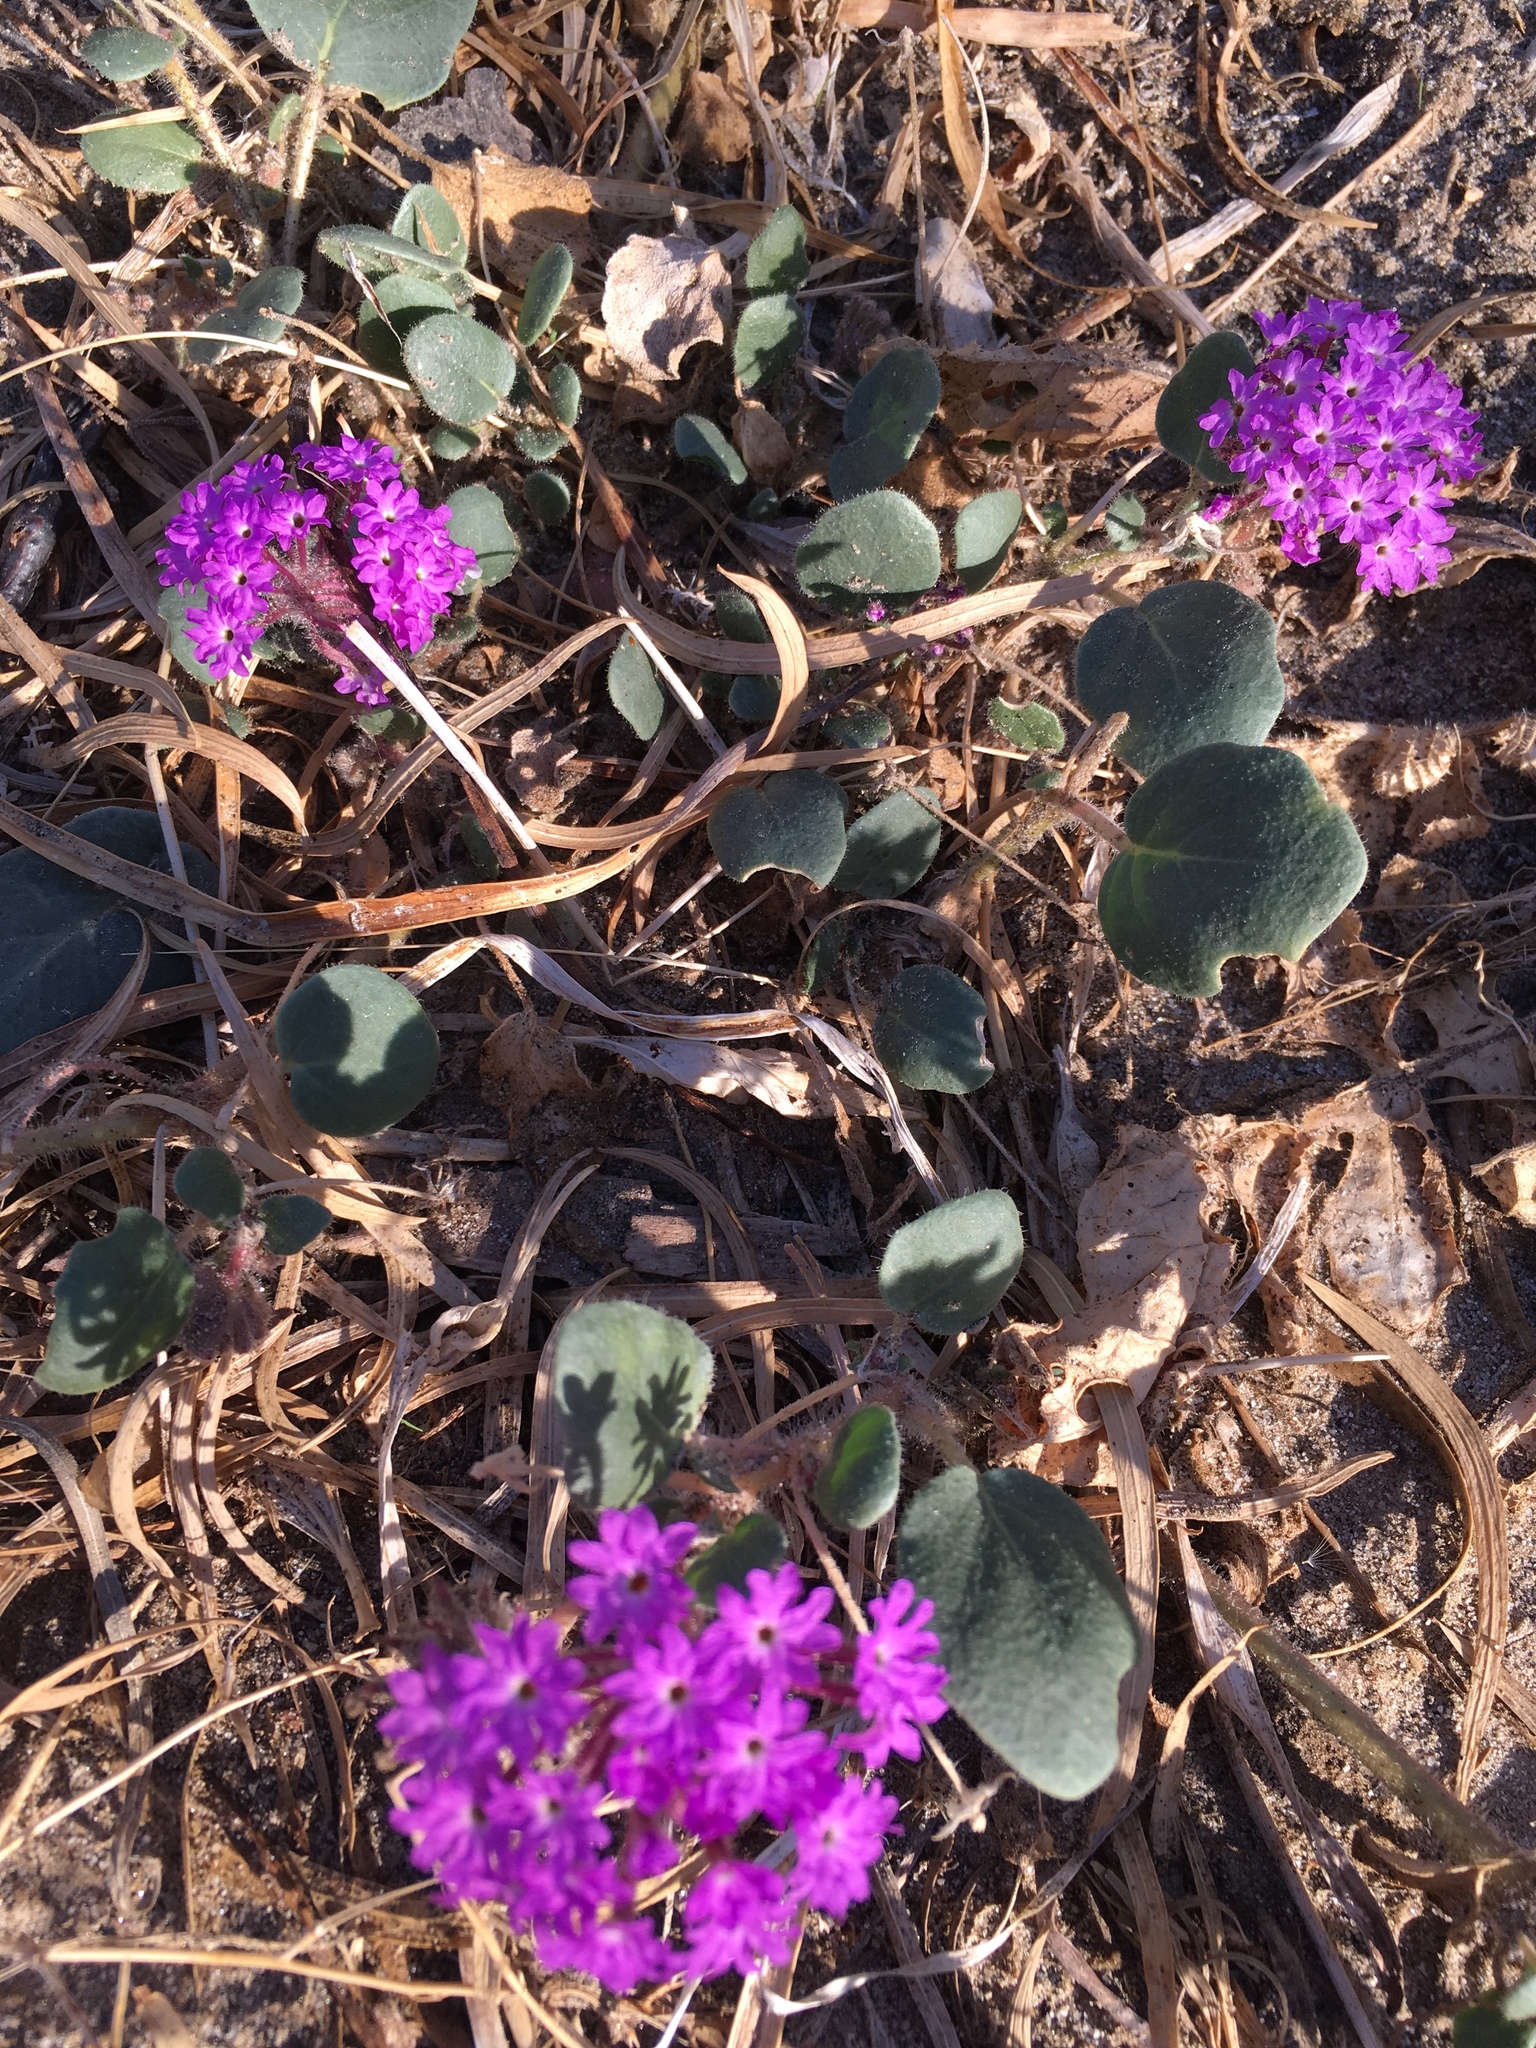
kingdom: Plantae
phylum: Tracheophyta
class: Magnoliopsida
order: Caryophyllales
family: Nyctaginaceae
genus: Abronia
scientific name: Abronia villosa
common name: Desert sand-verbena
